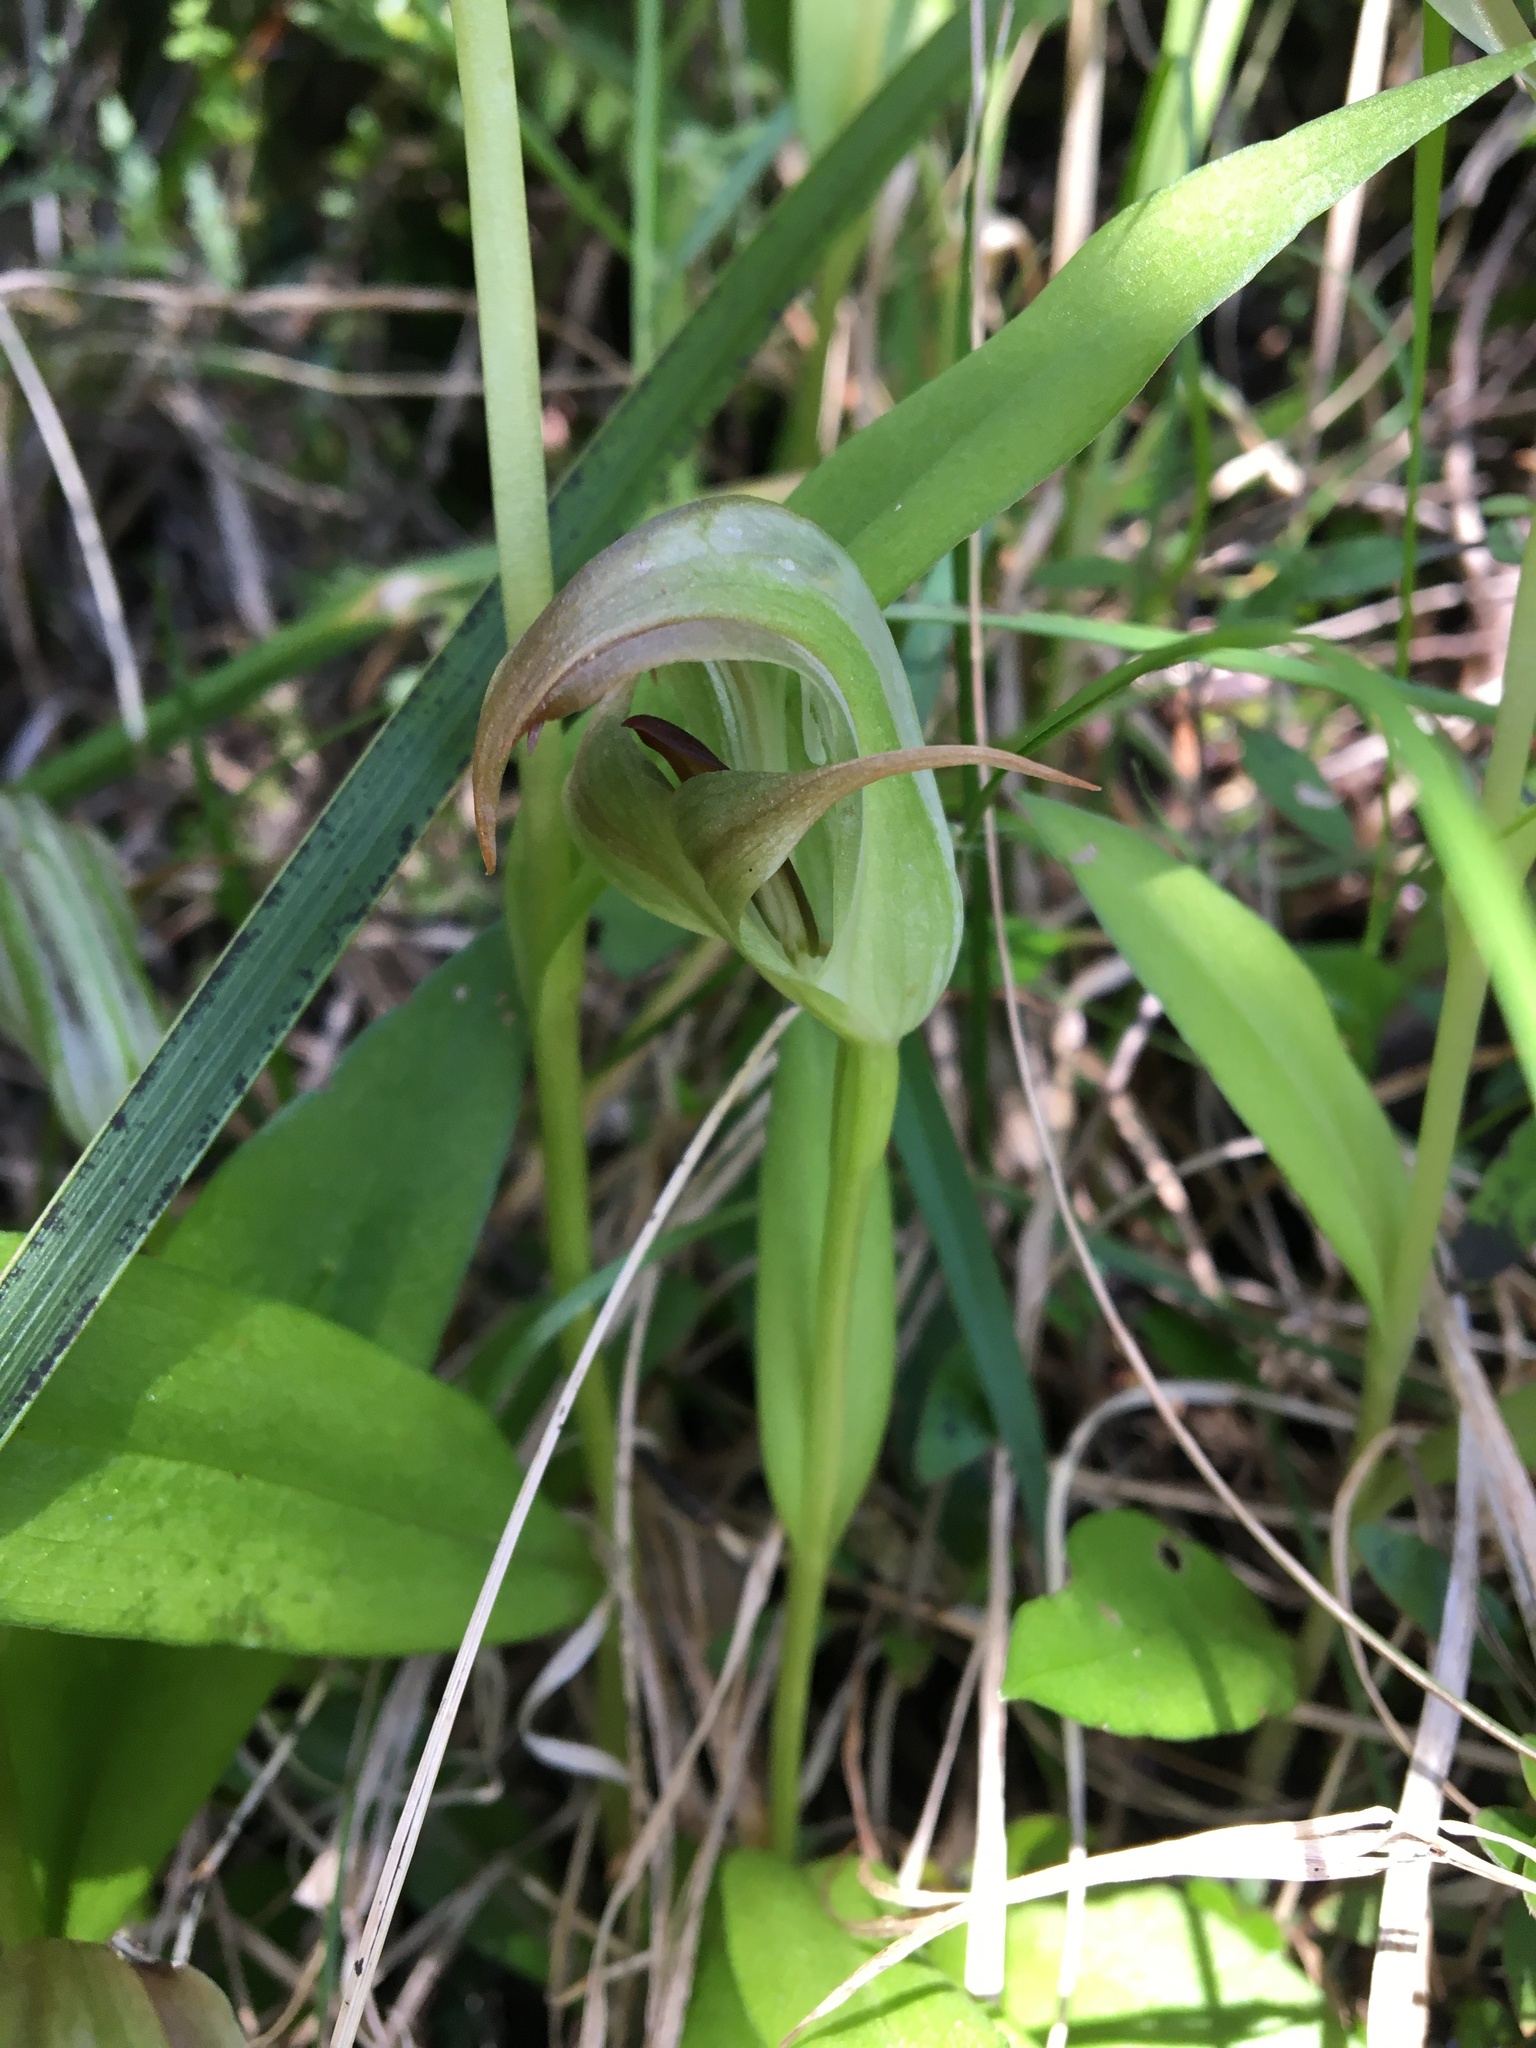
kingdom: Plantae
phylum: Tracheophyta
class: Liliopsida
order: Asparagales
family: Orchidaceae
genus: Pterostylis
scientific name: Pterostylis areolata
